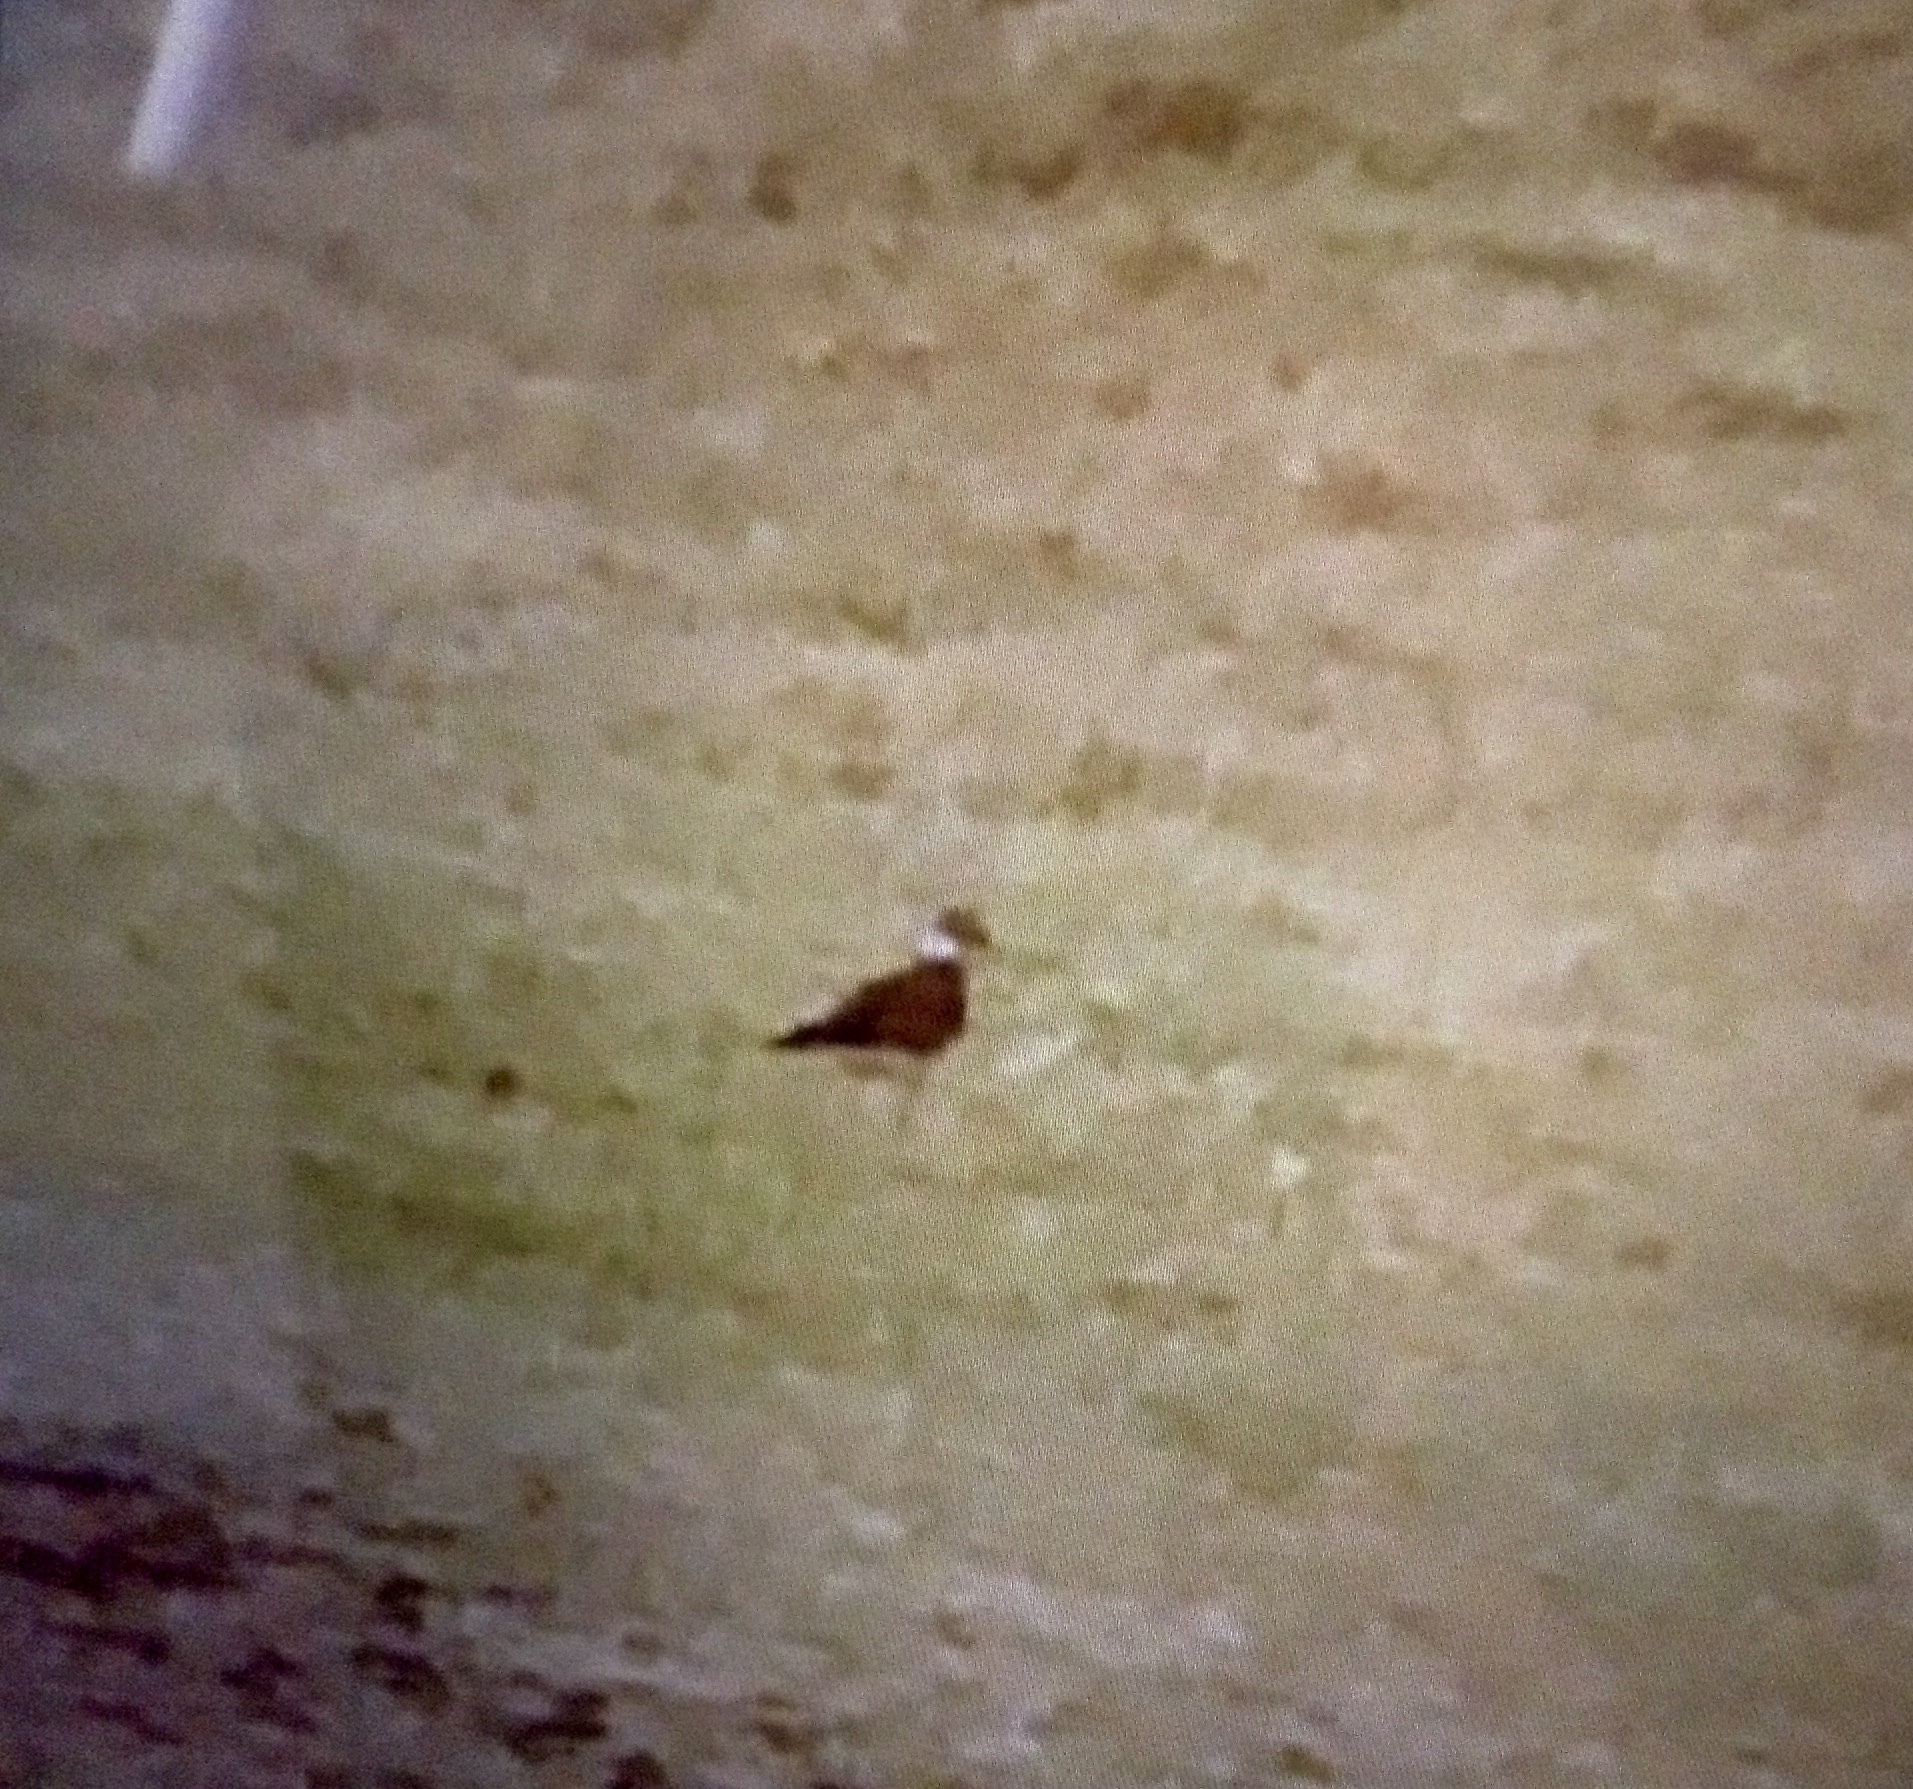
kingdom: Animalia
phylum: Chordata
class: Aves
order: Charadriiformes
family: Charadriidae
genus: Charadrius
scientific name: Charadrius vociferus
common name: Killdeer
